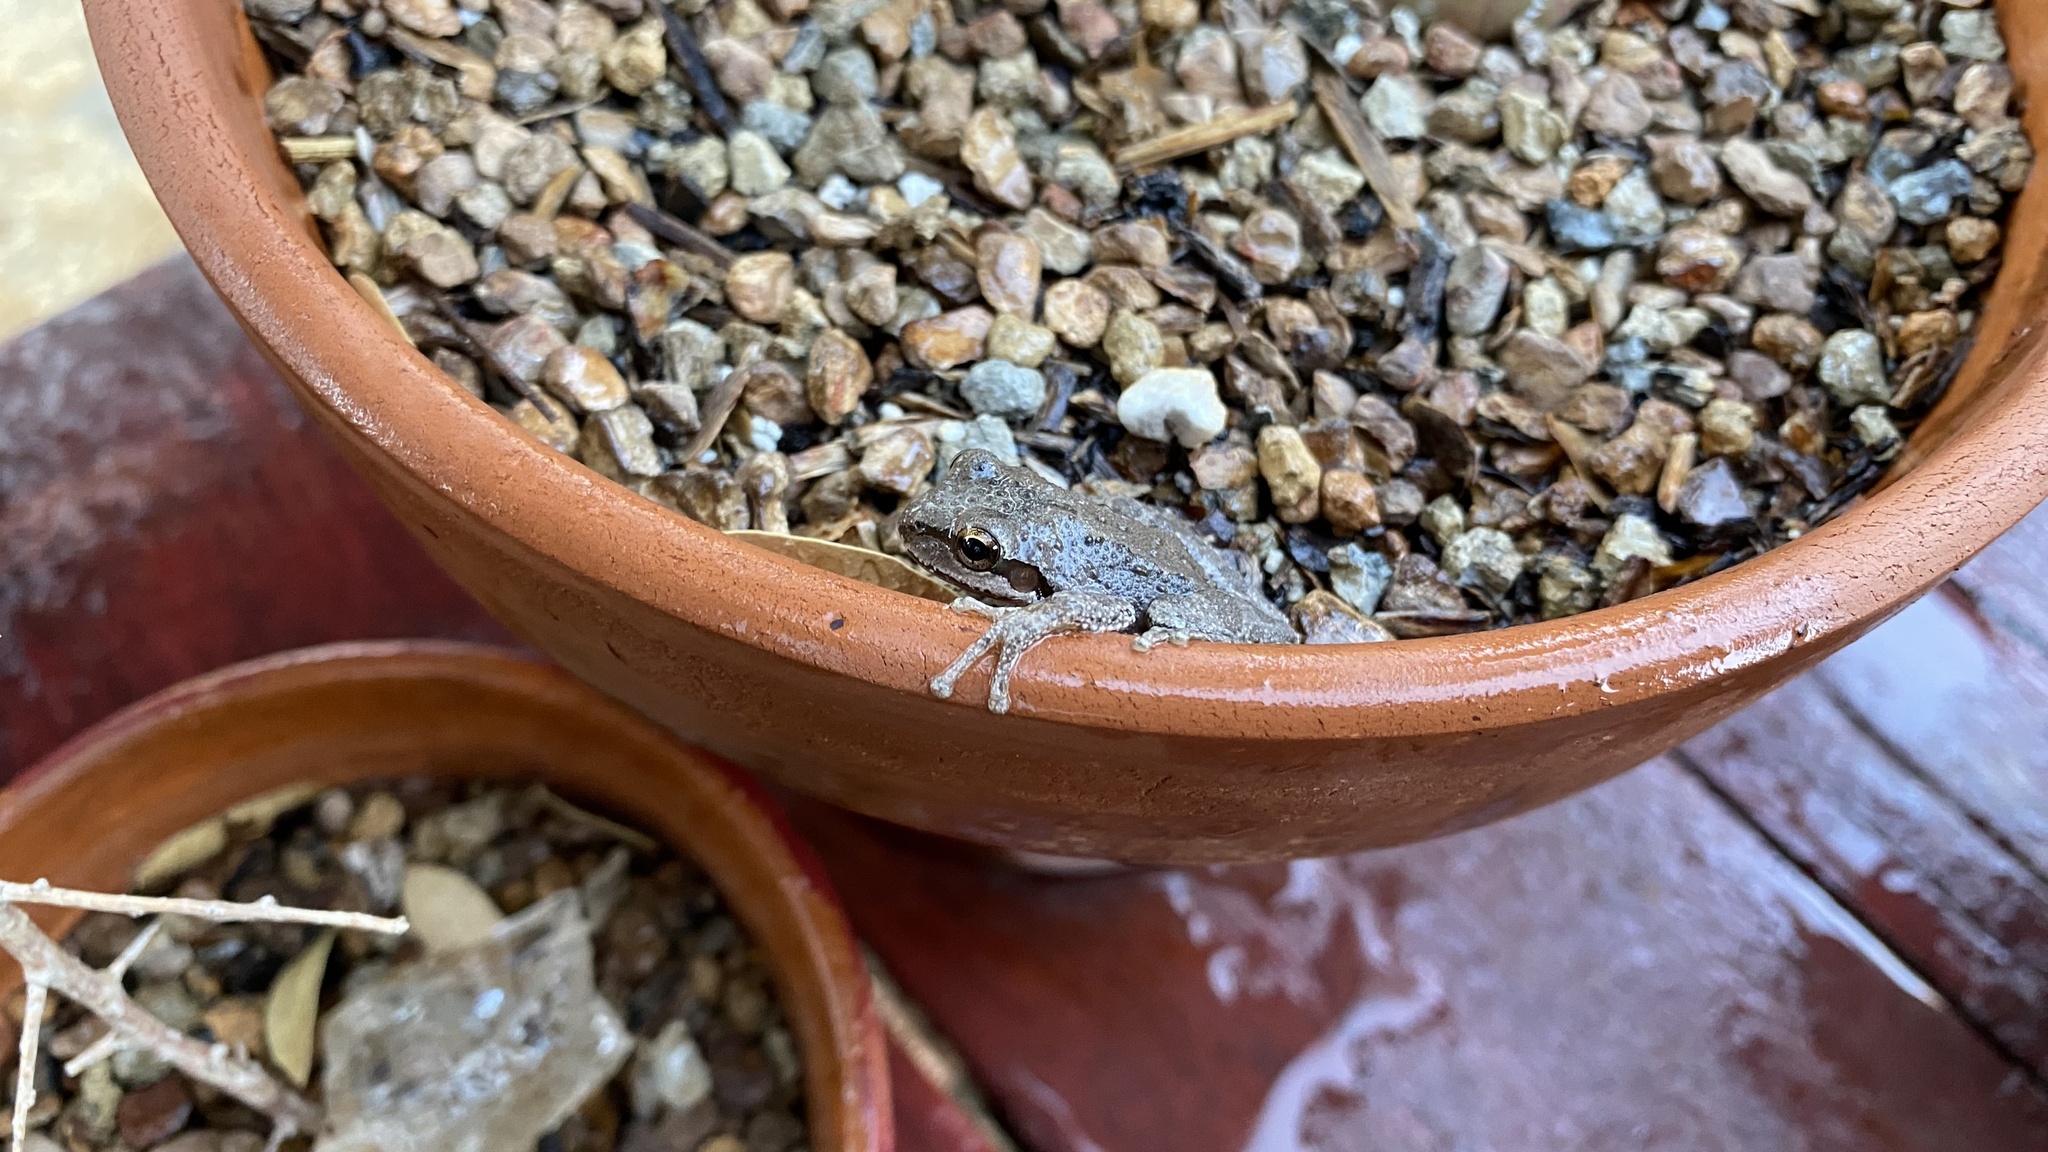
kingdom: Animalia
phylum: Chordata
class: Amphibia
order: Anura
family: Hylidae
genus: Pseudacris
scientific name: Pseudacris regilla
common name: Pacific chorus frog
